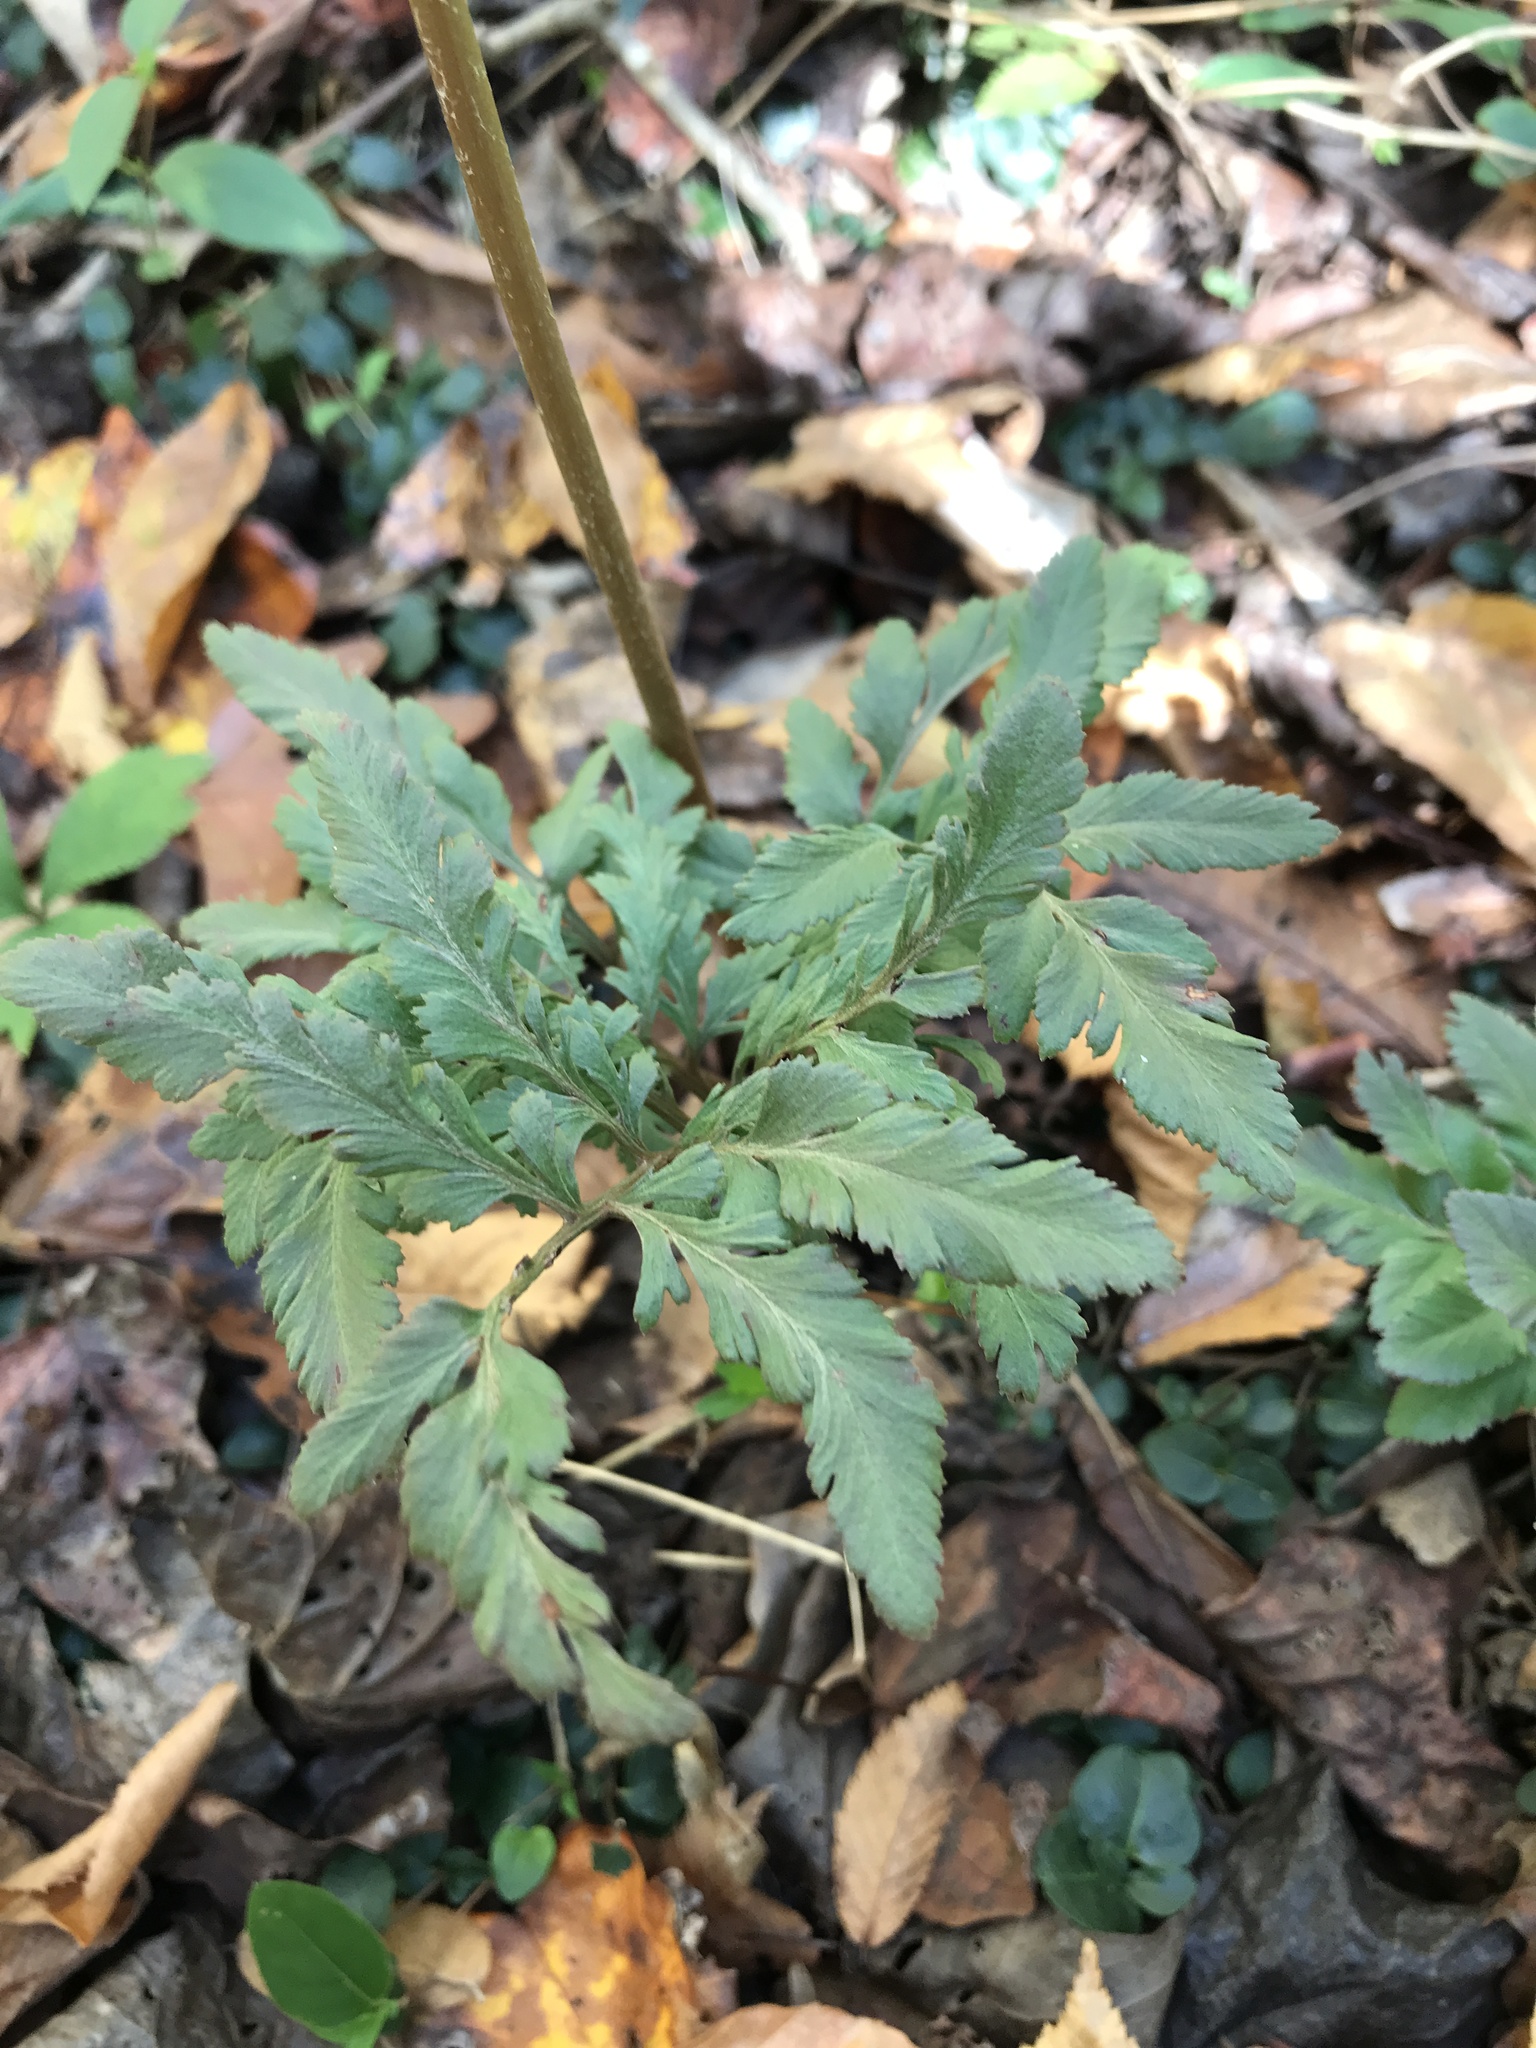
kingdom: Plantae
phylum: Tracheophyta
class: Polypodiopsida
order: Ophioglossales
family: Ophioglossaceae
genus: Sceptridium
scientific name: Sceptridium dissectum
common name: Cut-leaved grapefern
